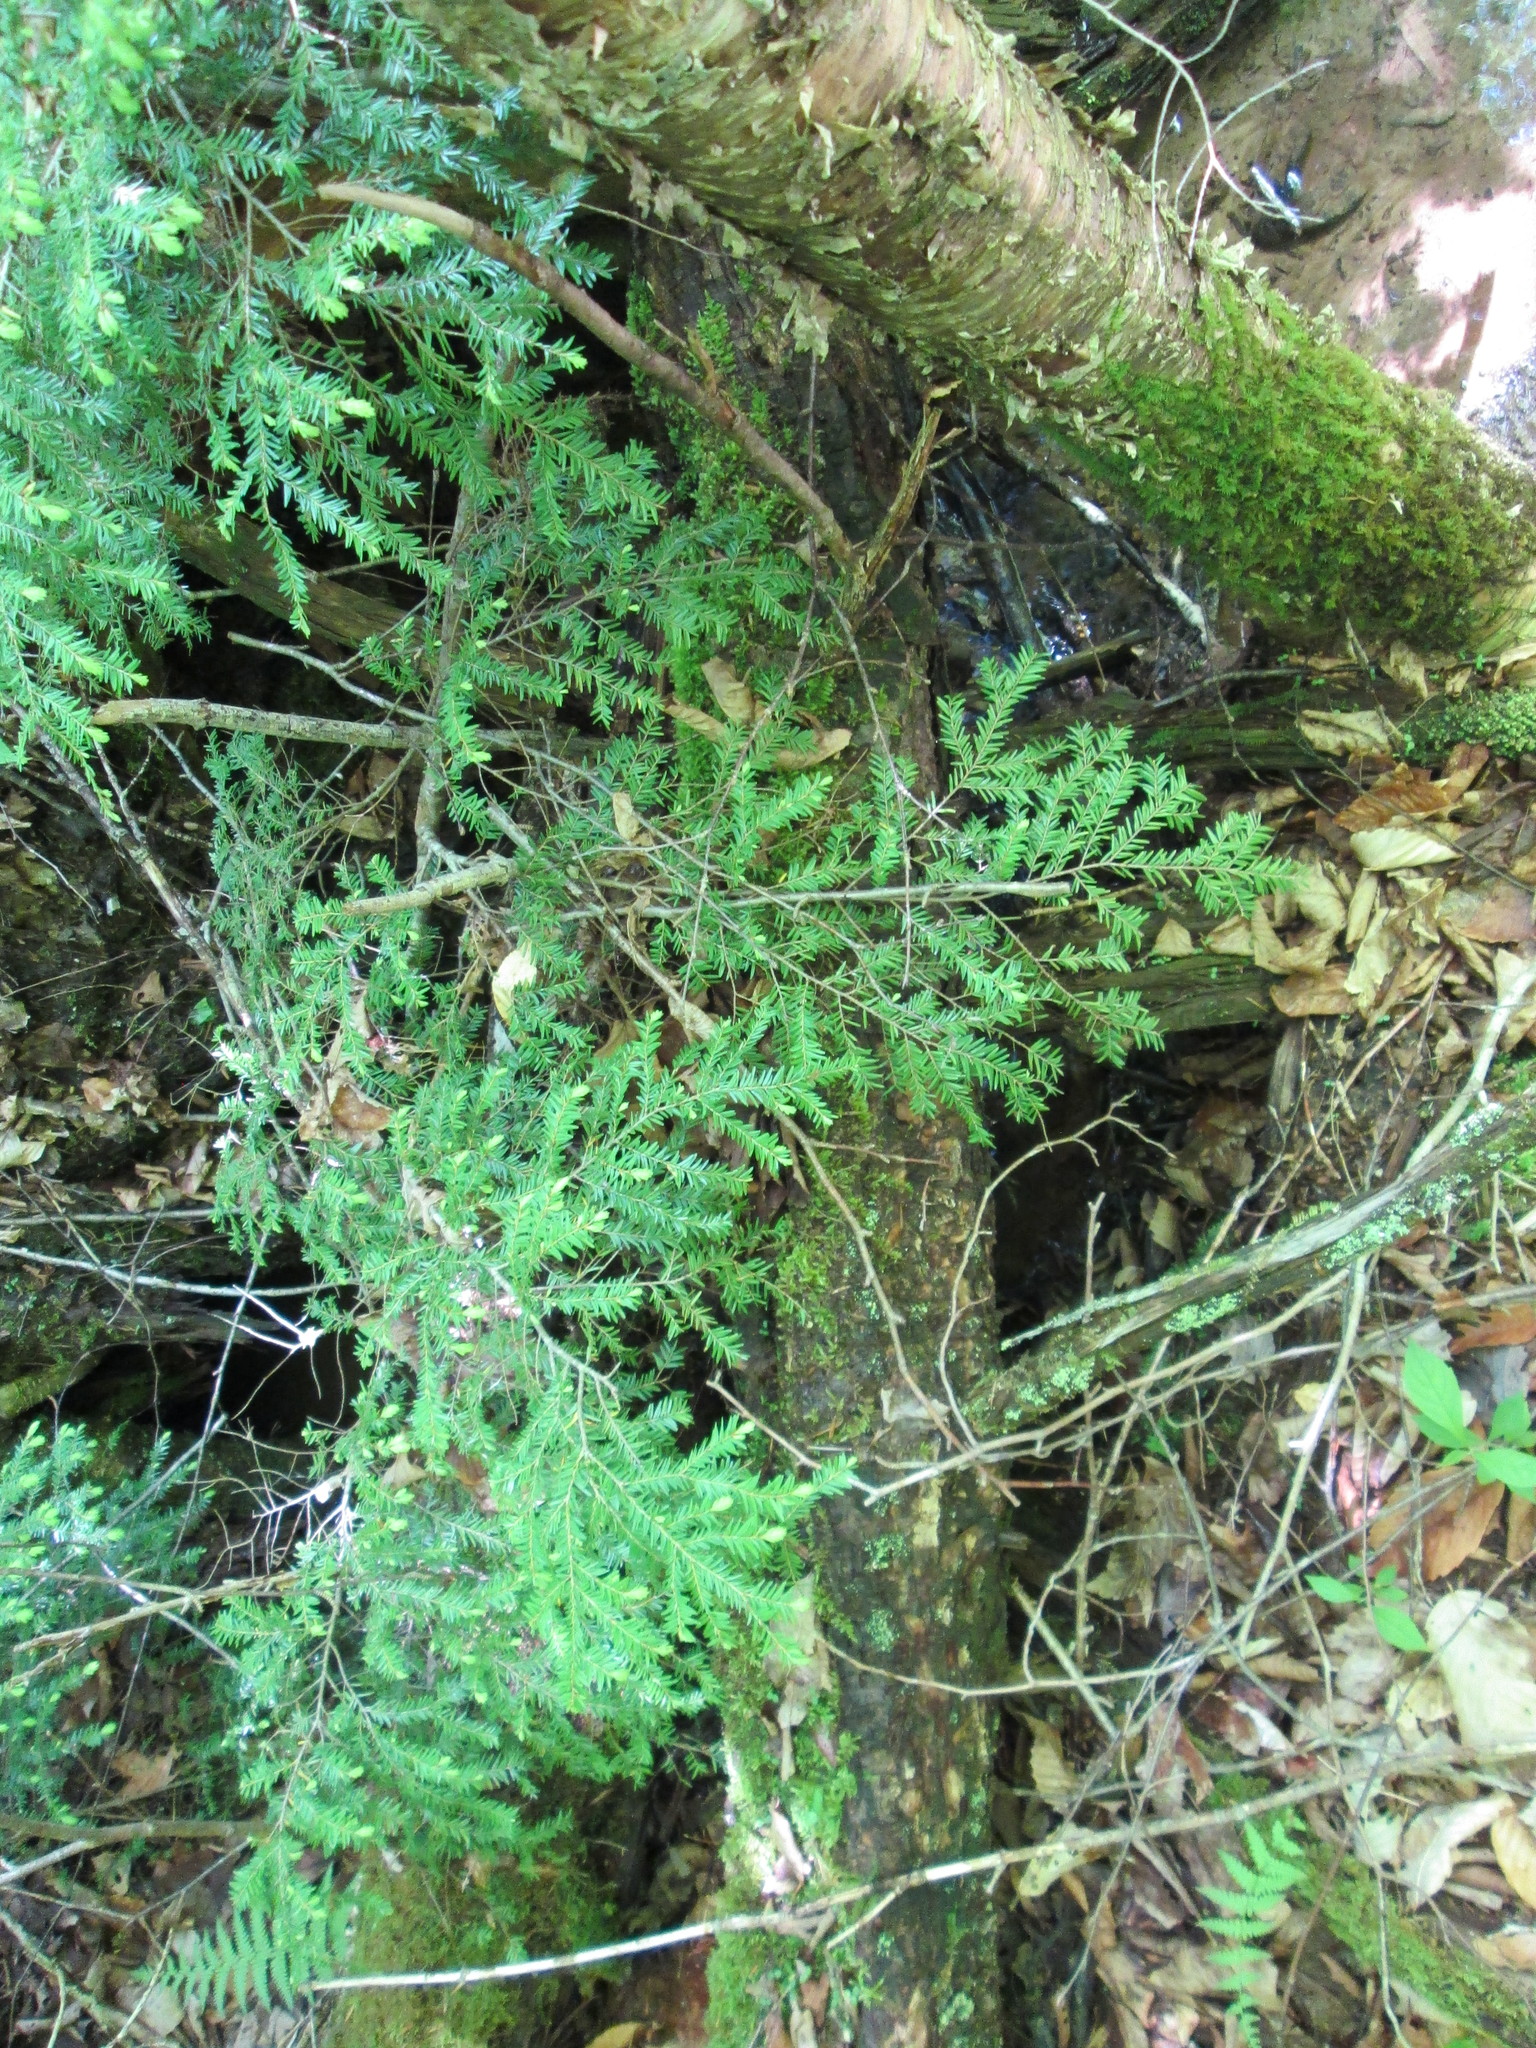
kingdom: Plantae
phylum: Tracheophyta
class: Pinopsida
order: Pinales
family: Pinaceae
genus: Tsuga
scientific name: Tsuga canadensis
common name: Eastern hemlock
